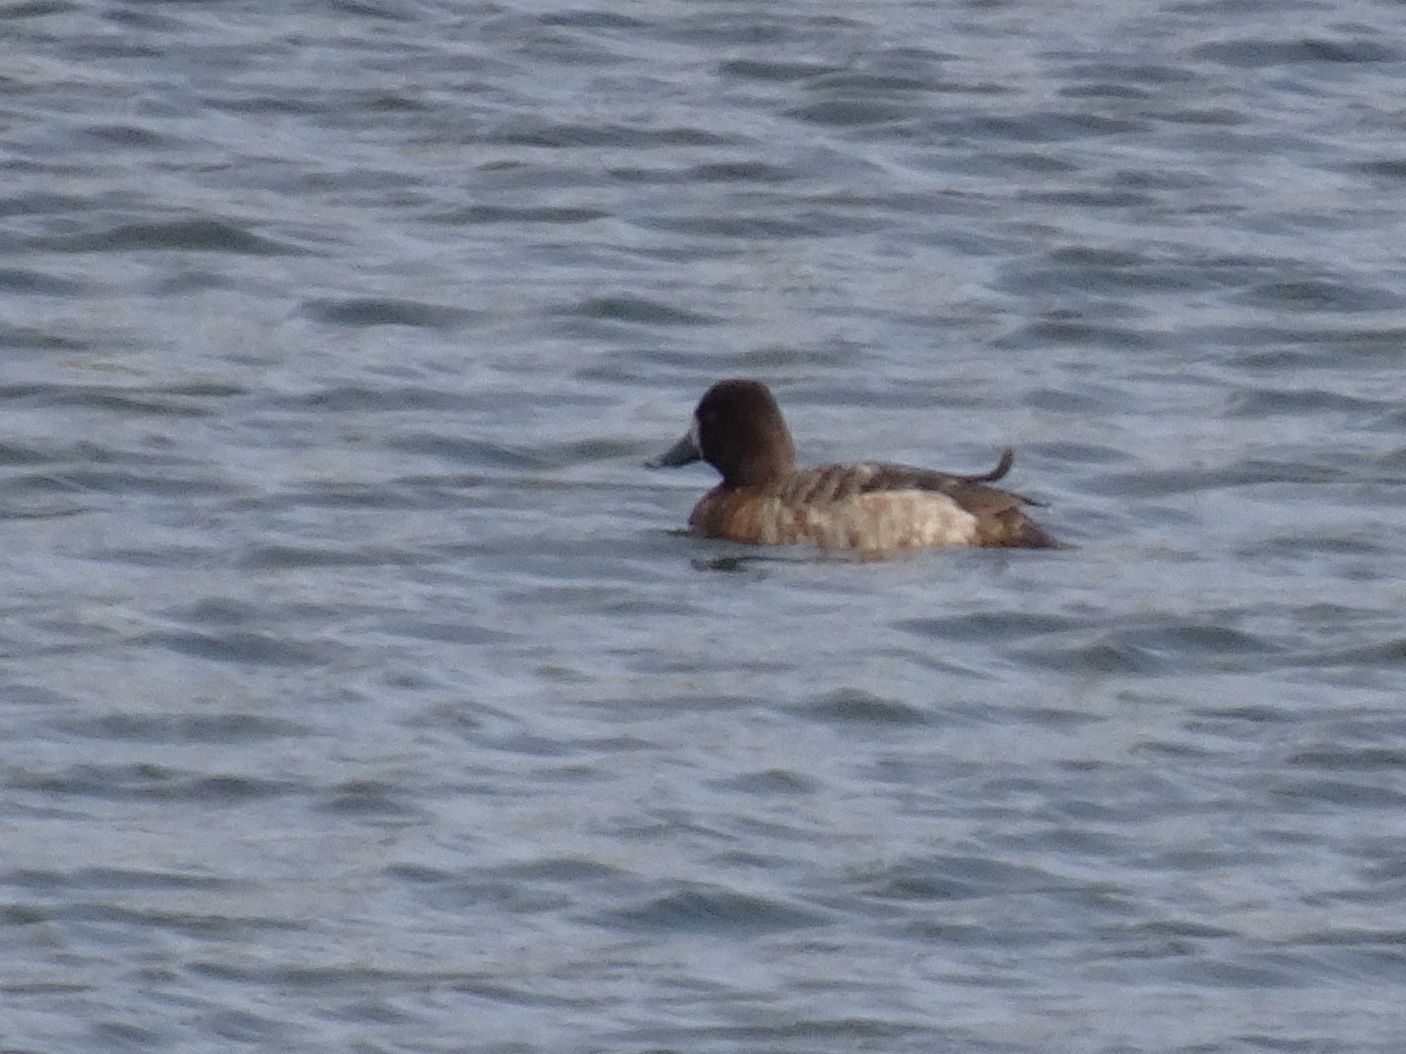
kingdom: Animalia
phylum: Chordata
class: Aves
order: Anseriformes
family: Anatidae
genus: Aythya
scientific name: Aythya affinis
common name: Lesser scaup
